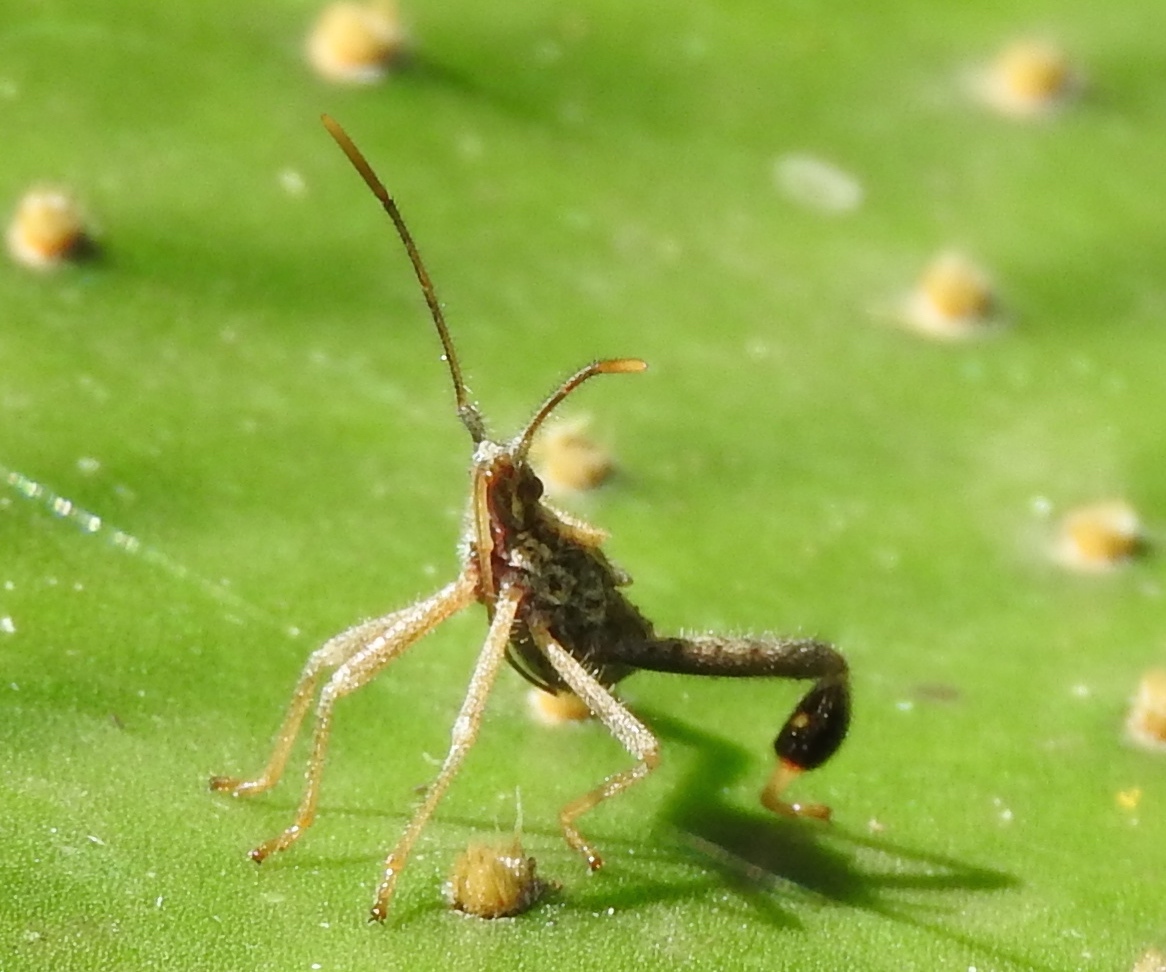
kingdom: Animalia
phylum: Arthropoda
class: Insecta
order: Hemiptera
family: Coreidae
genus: Narnia
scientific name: Narnia
